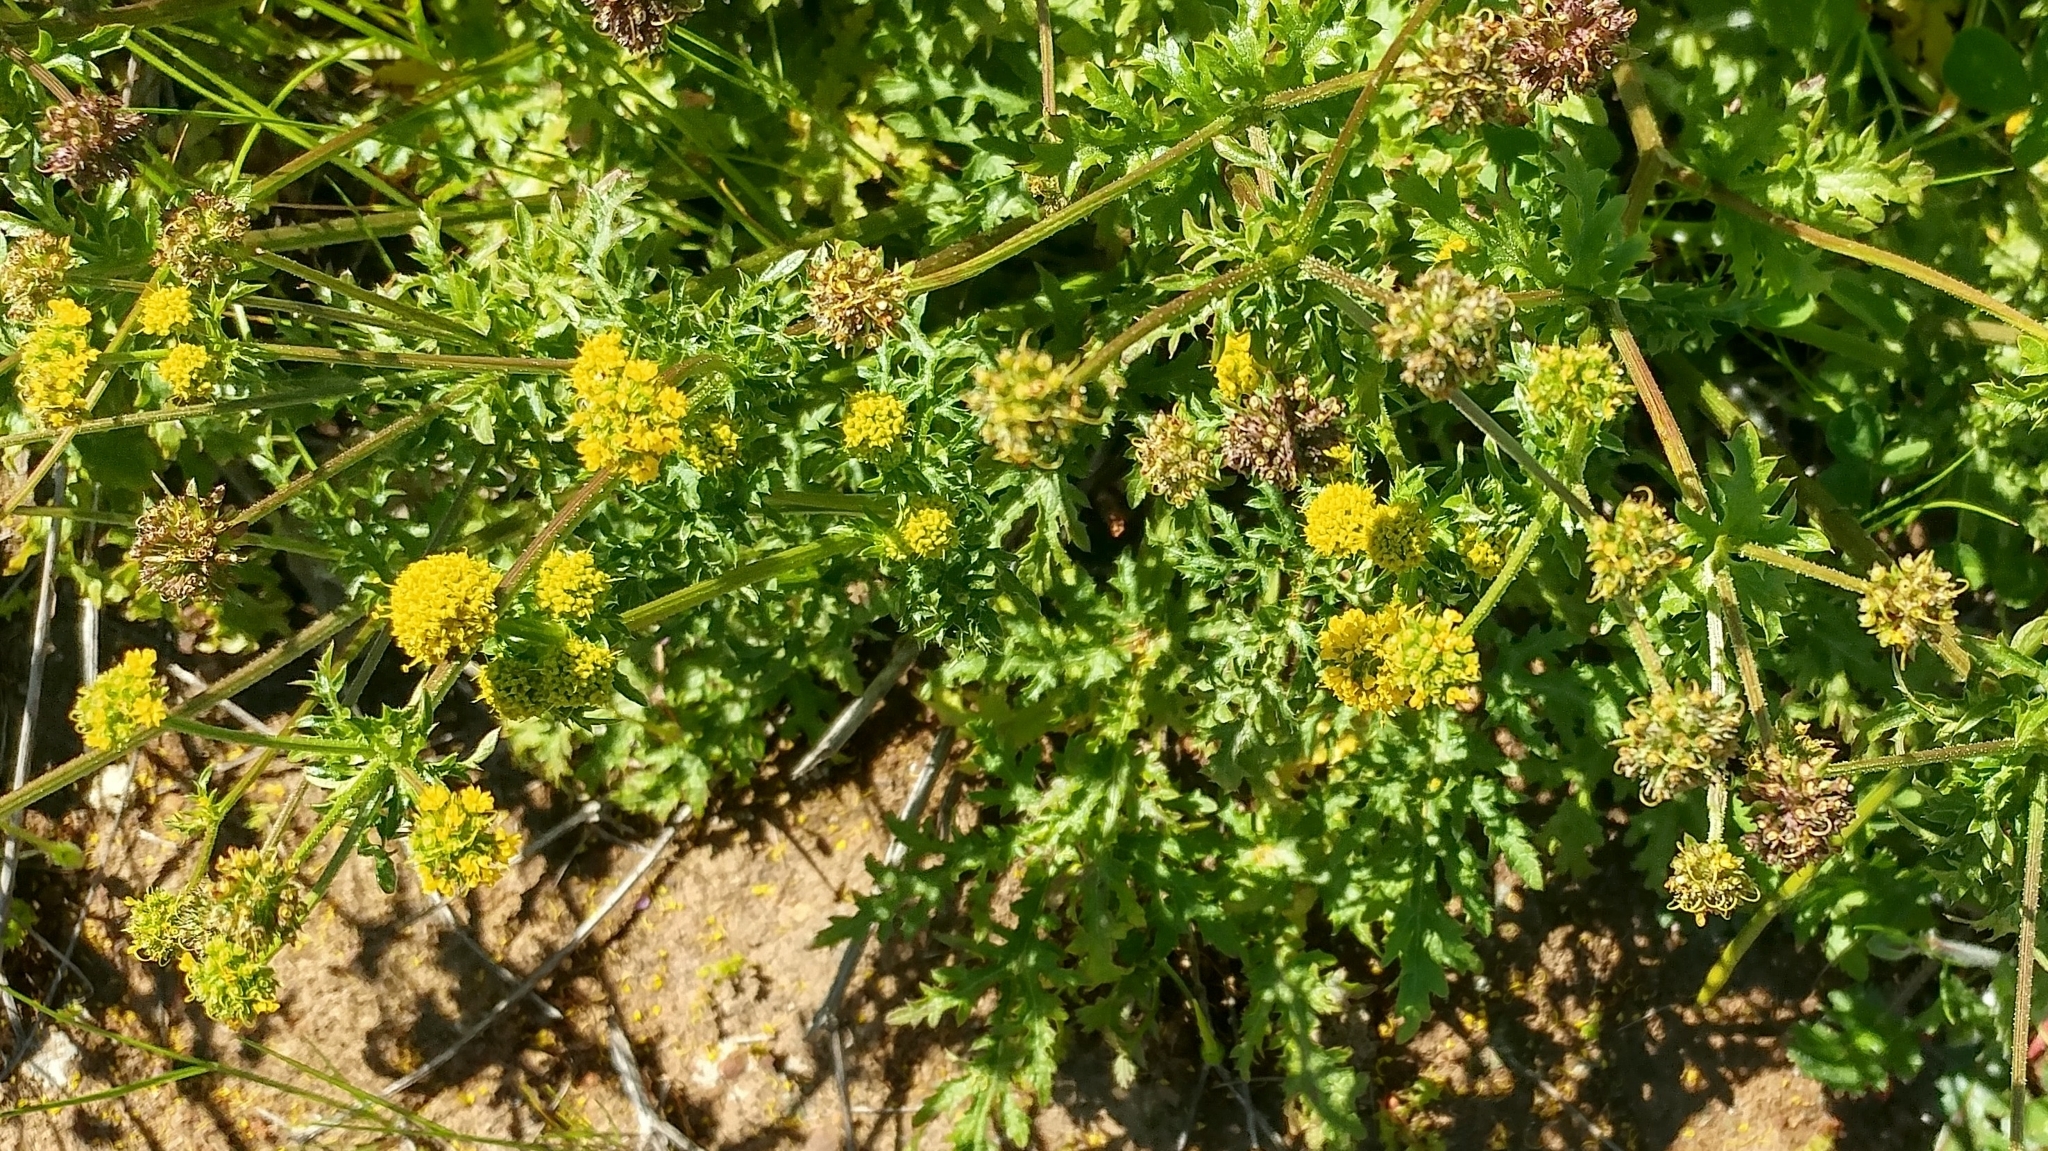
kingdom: Plantae
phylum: Tracheophyta
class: Magnoliopsida
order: Apiales
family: Apiaceae
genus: Sanicula
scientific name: Sanicula arguta
